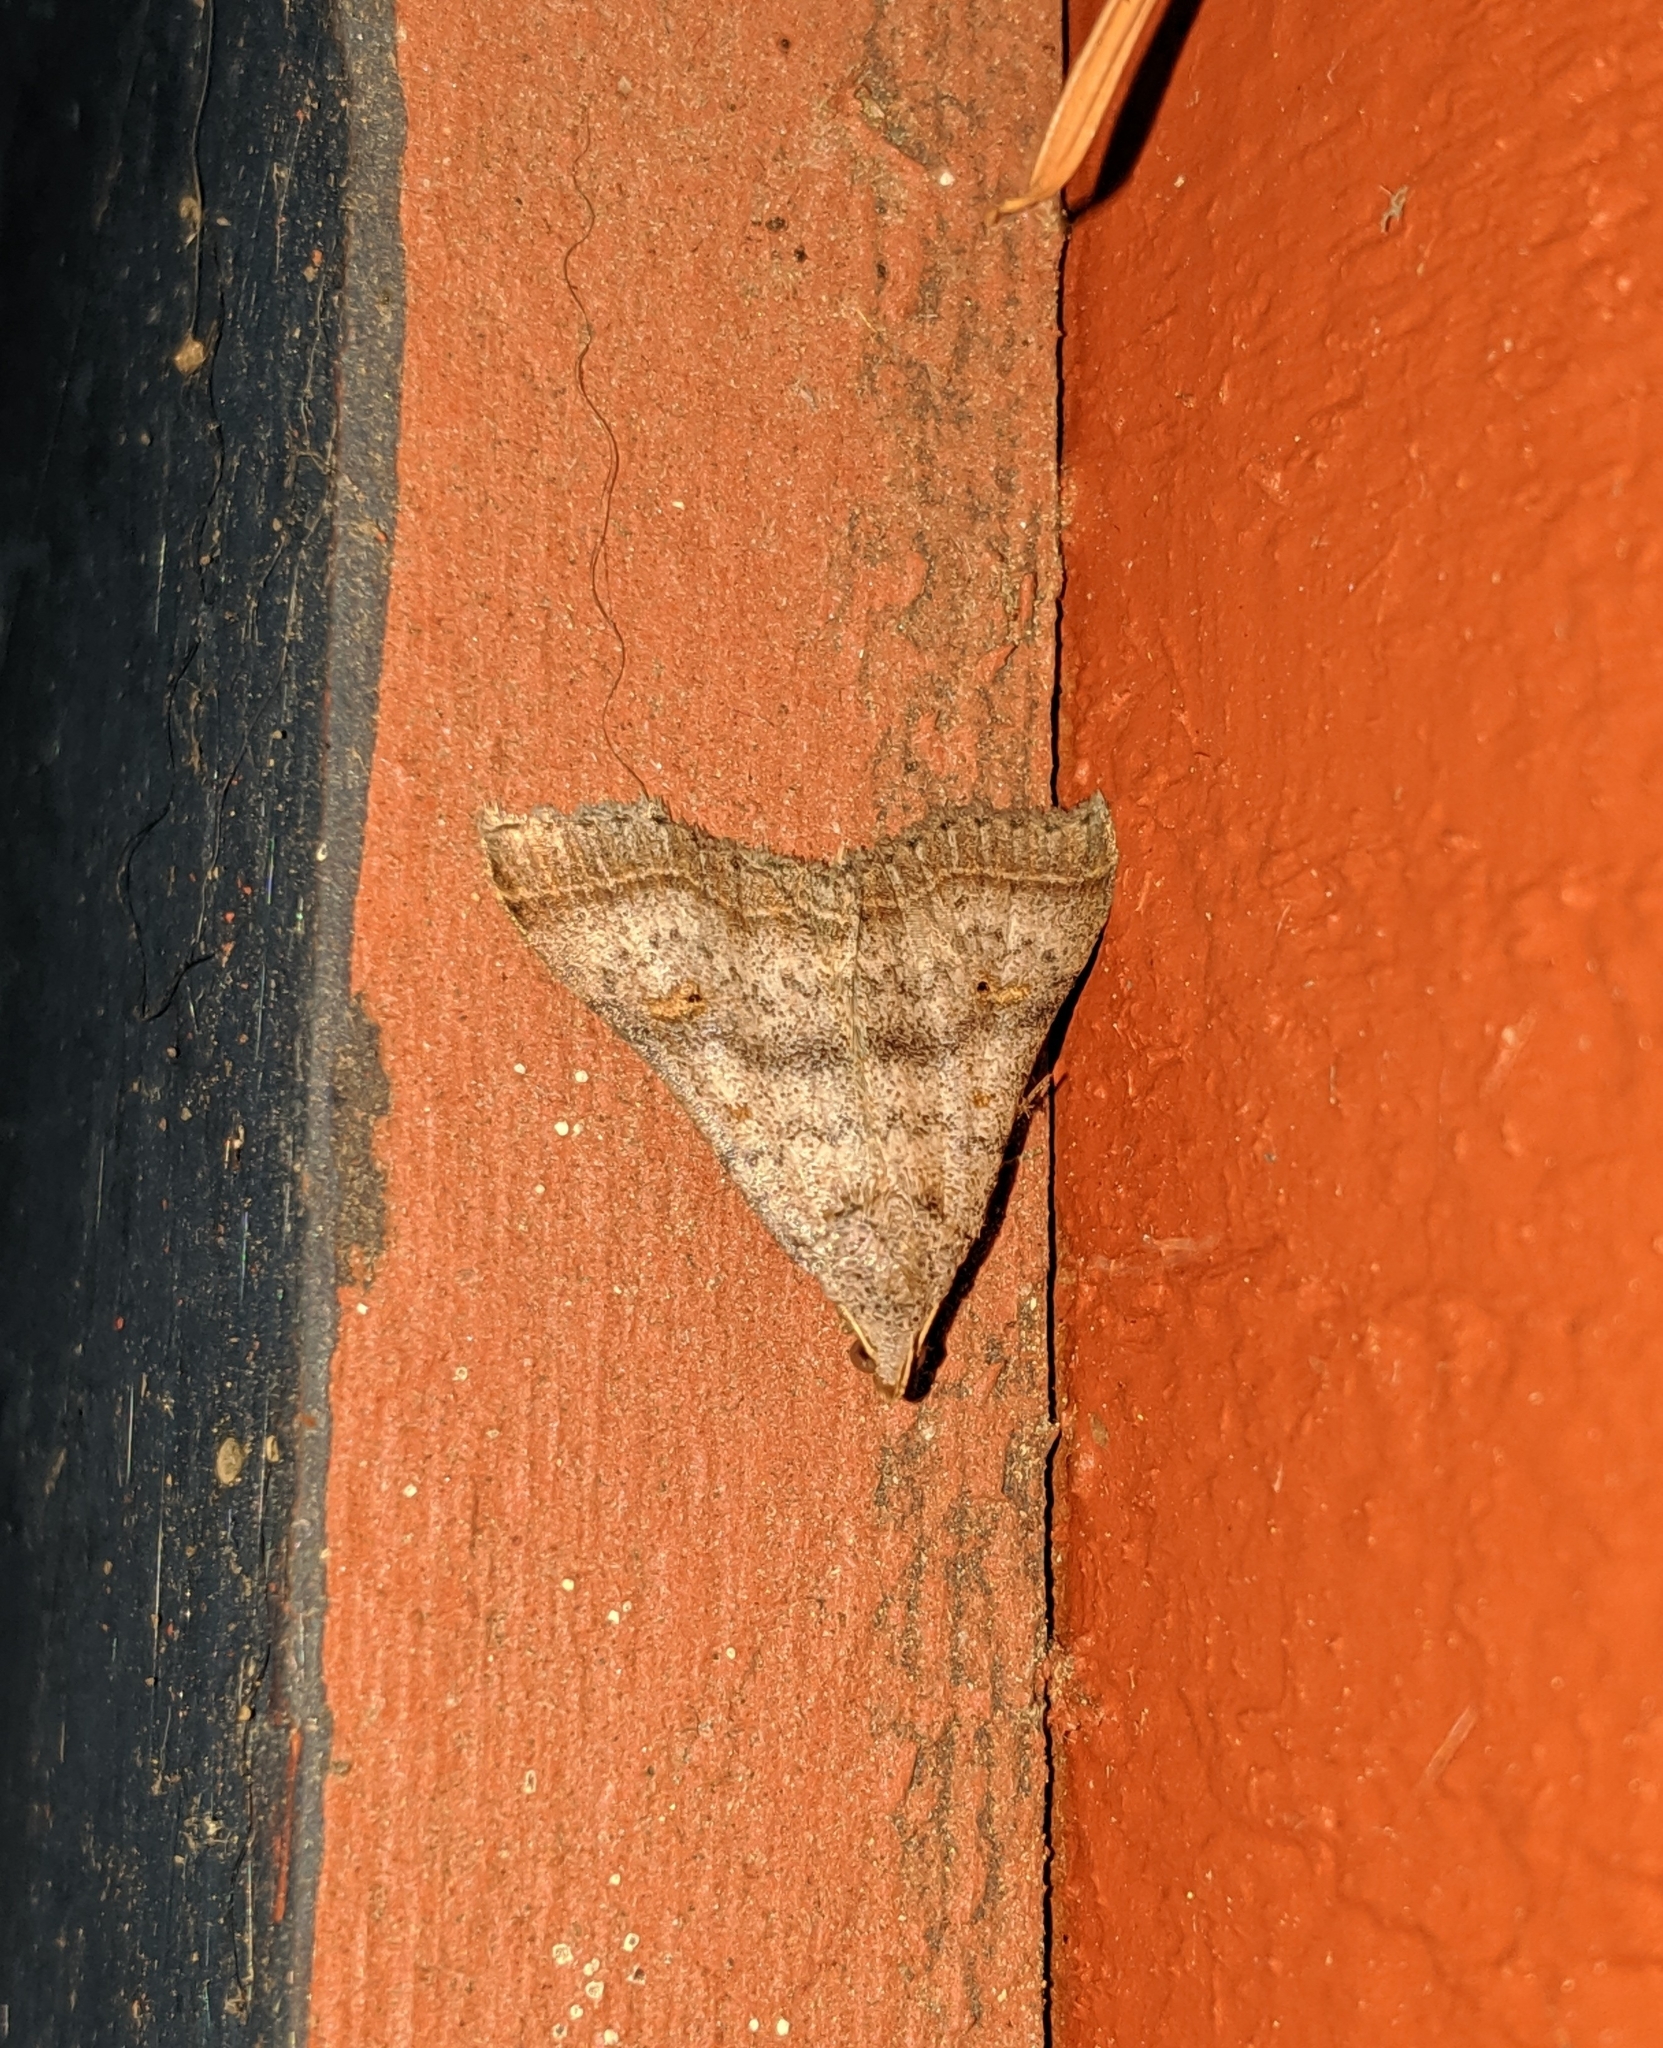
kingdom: Animalia
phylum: Arthropoda
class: Insecta
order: Lepidoptera
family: Erebidae
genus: Bleptina
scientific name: Bleptina caradrinalis
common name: Bent-winged owlet
